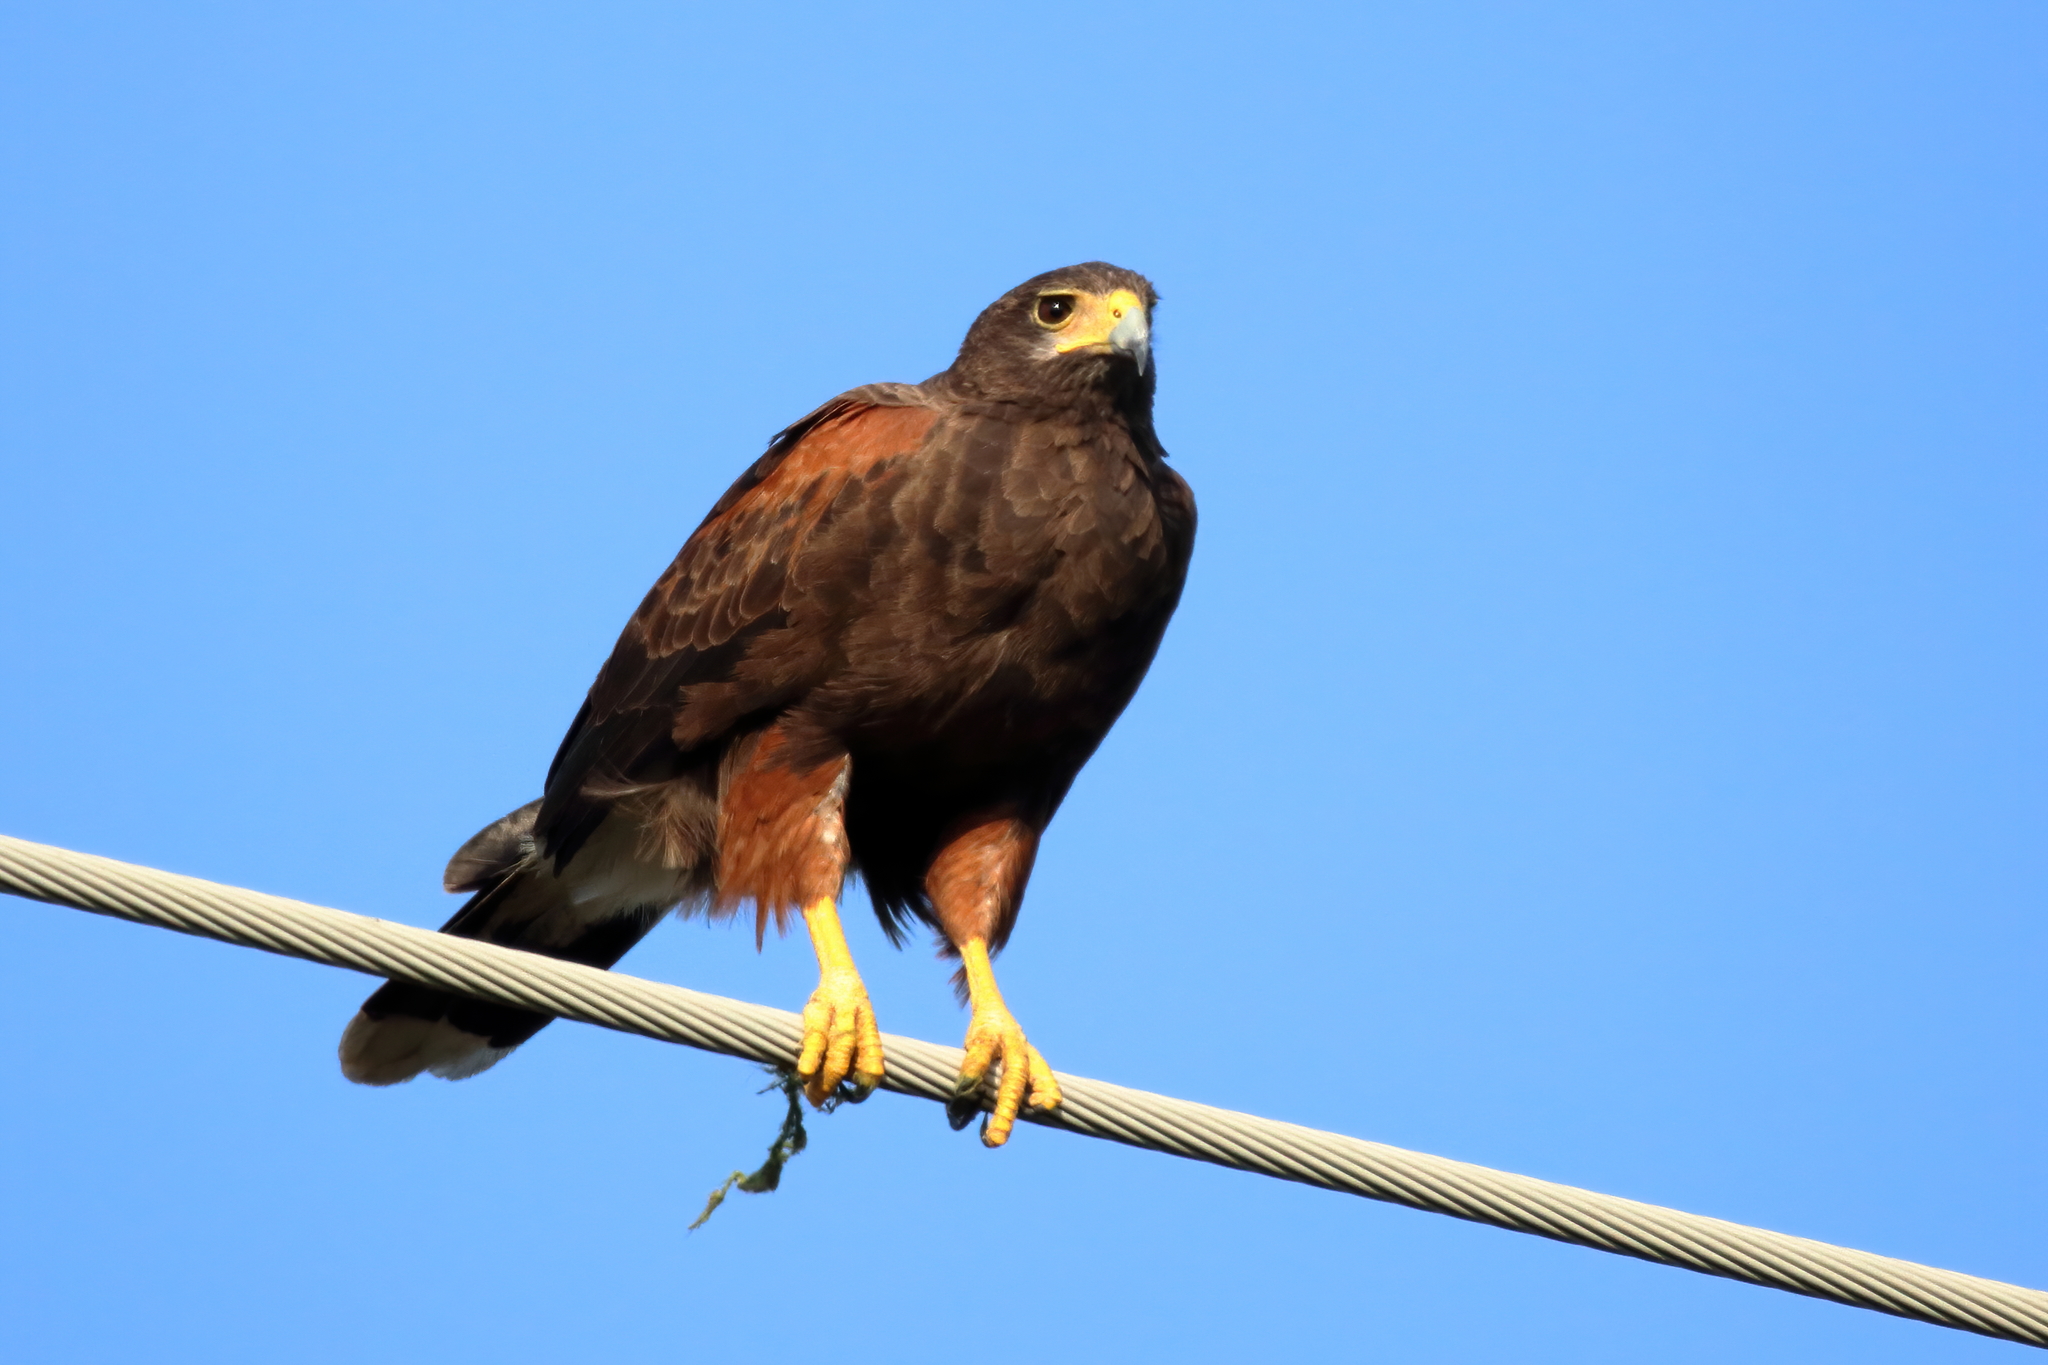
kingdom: Animalia
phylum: Chordata
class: Aves
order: Accipitriformes
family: Accipitridae
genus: Parabuteo
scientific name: Parabuteo unicinctus
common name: Harris's hawk
